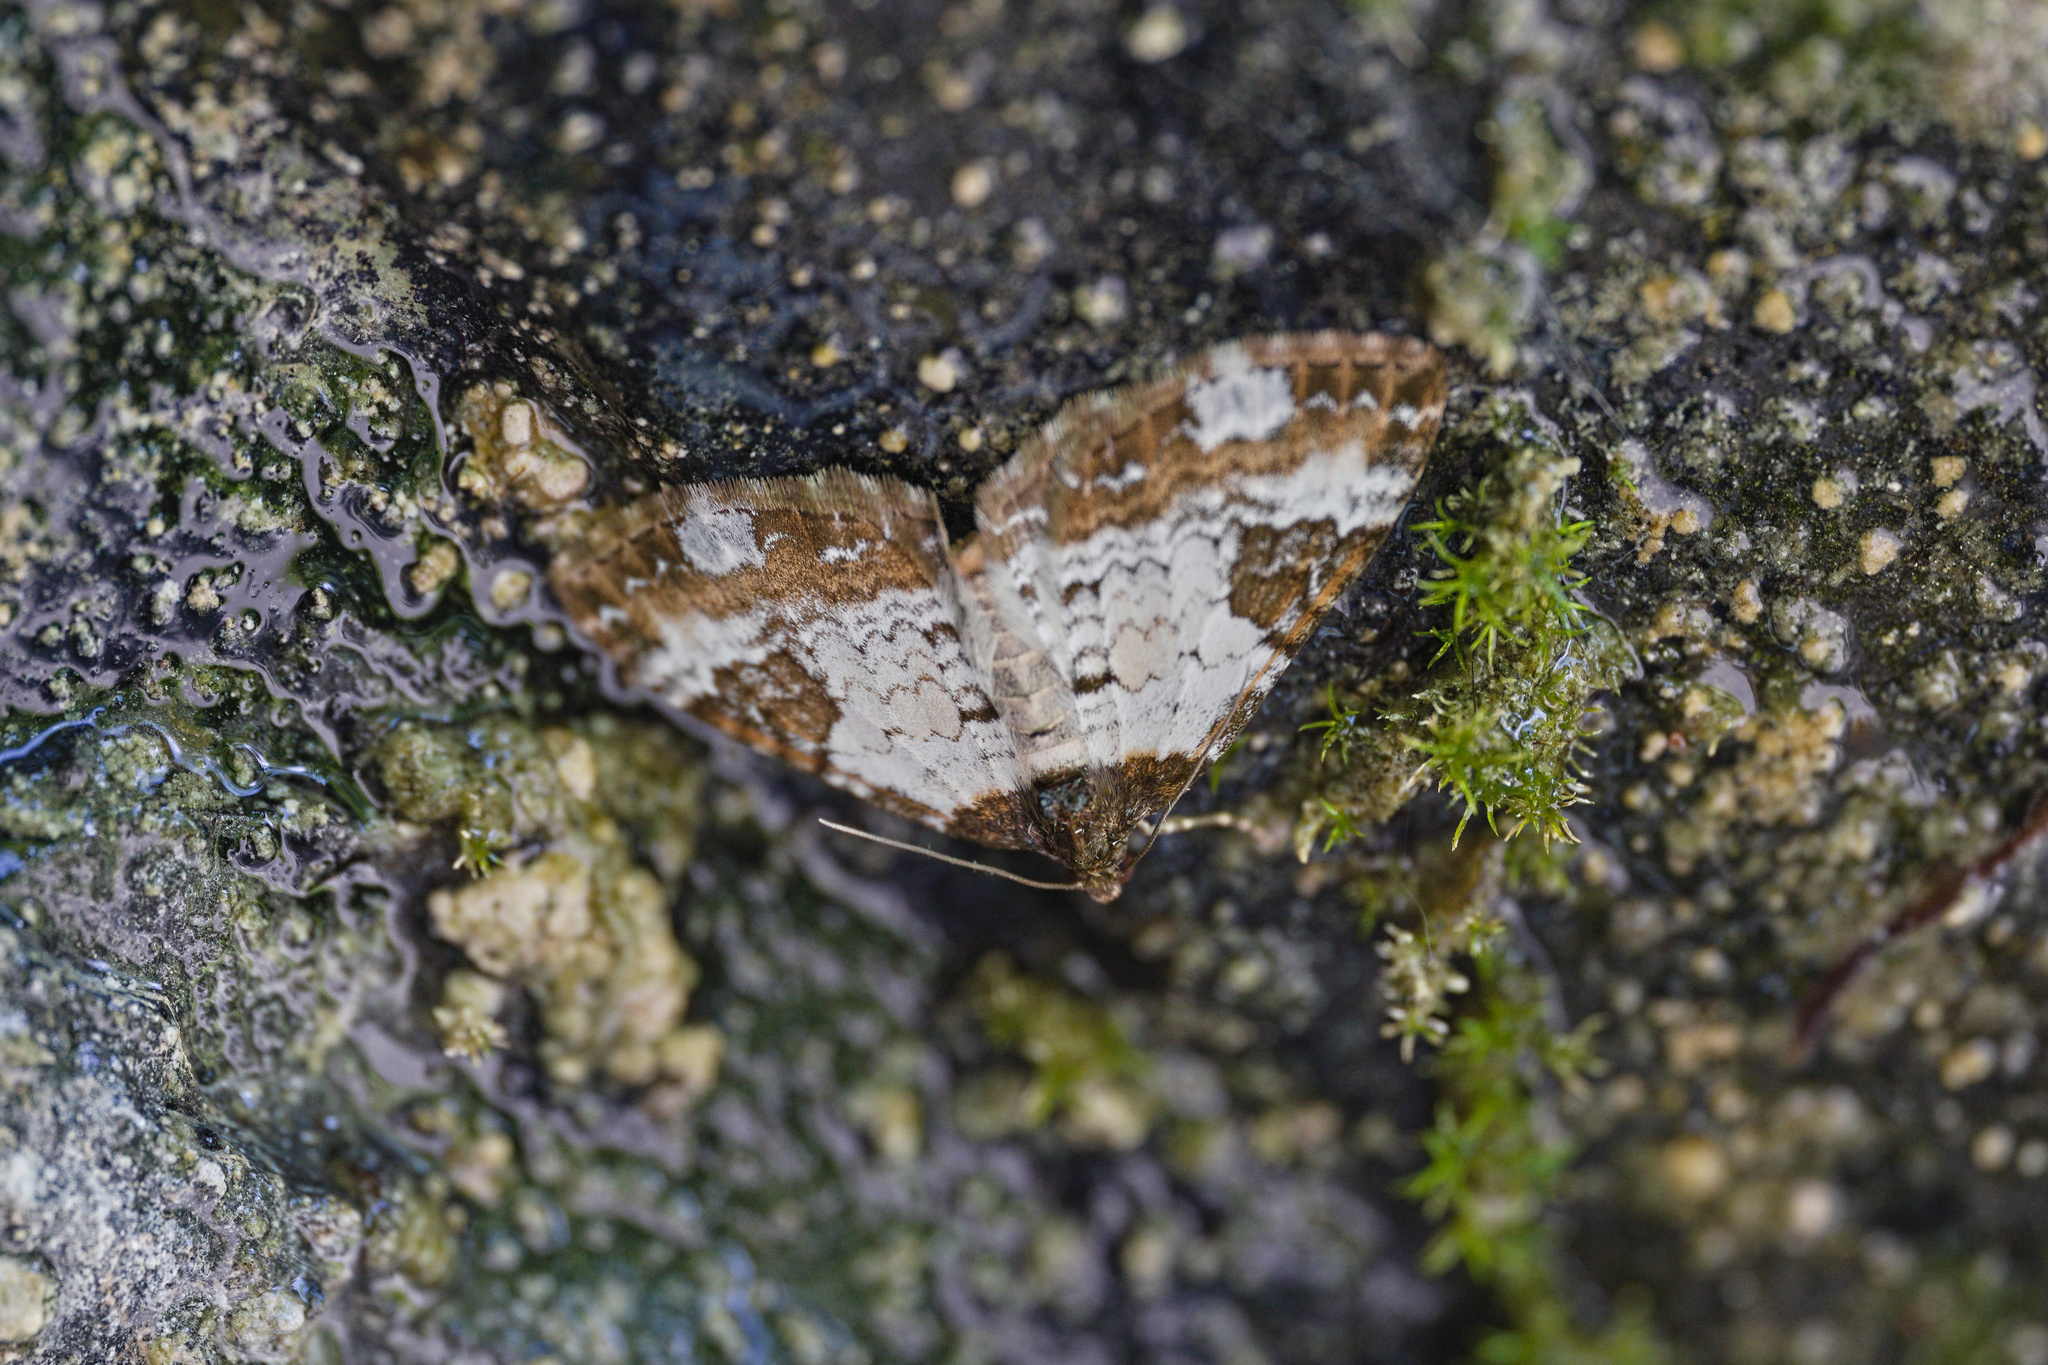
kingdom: Animalia
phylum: Arthropoda
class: Insecta
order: Lepidoptera
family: Geometridae
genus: Melanthia
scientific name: Melanthia procellata
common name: Pretty chalk carpet
